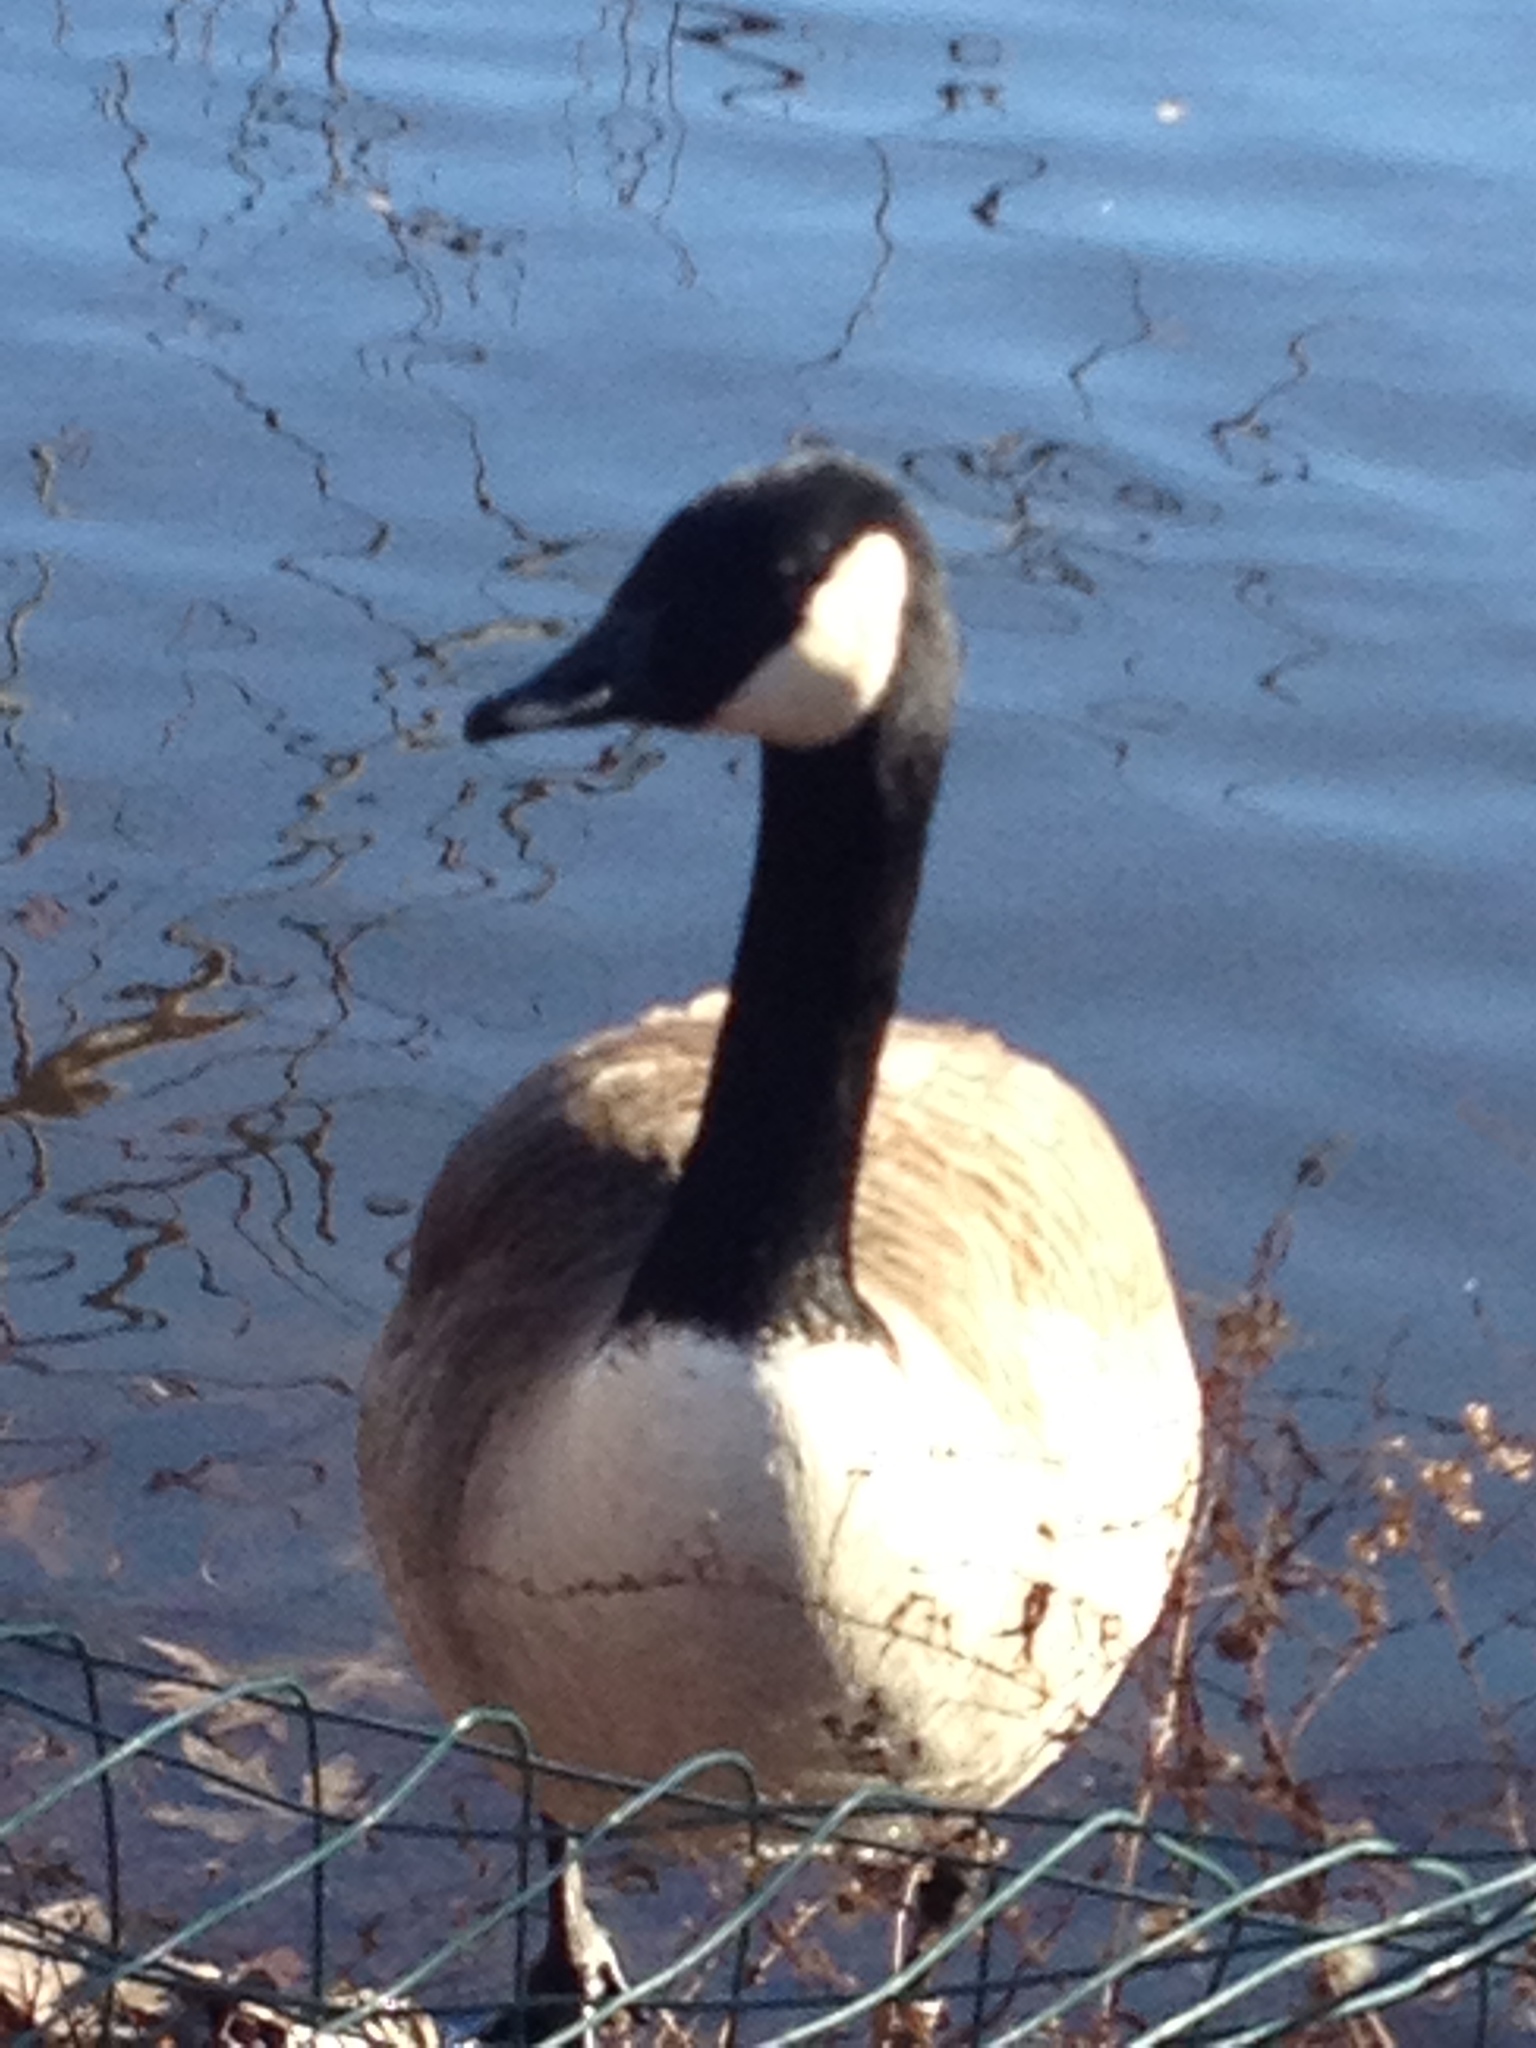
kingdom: Animalia
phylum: Chordata
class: Aves
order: Anseriformes
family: Anatidae
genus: Branta
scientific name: Branta canadensis
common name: Canada goose
